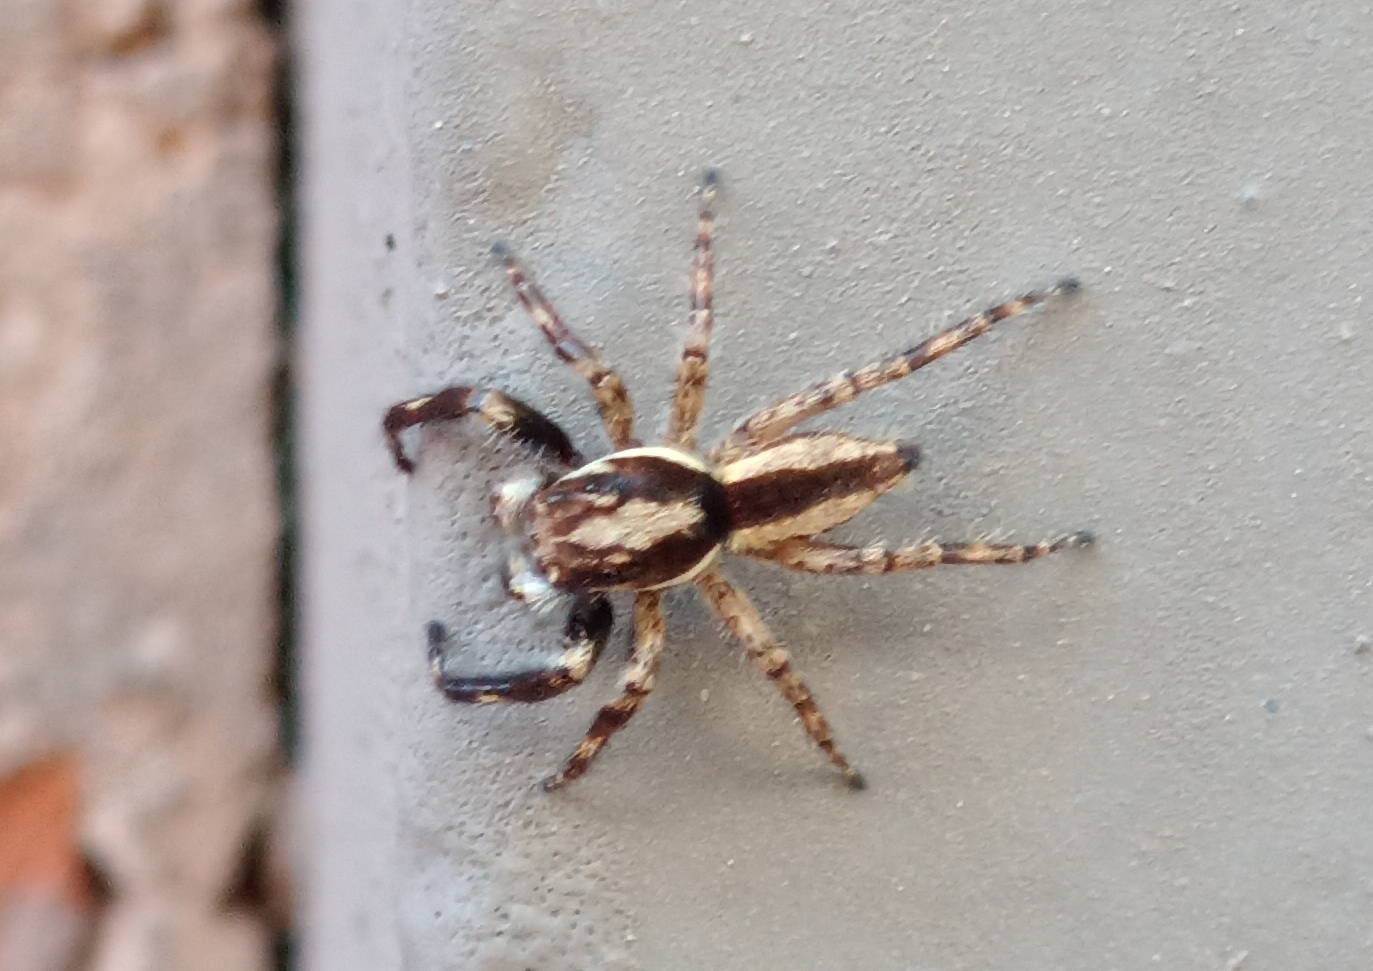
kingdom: Animalia
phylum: Arthropoda
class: Arachnida
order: Araneae
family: Salticidae
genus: Menemerus
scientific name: Menemerus bivittatus
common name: Gray wall jumper
